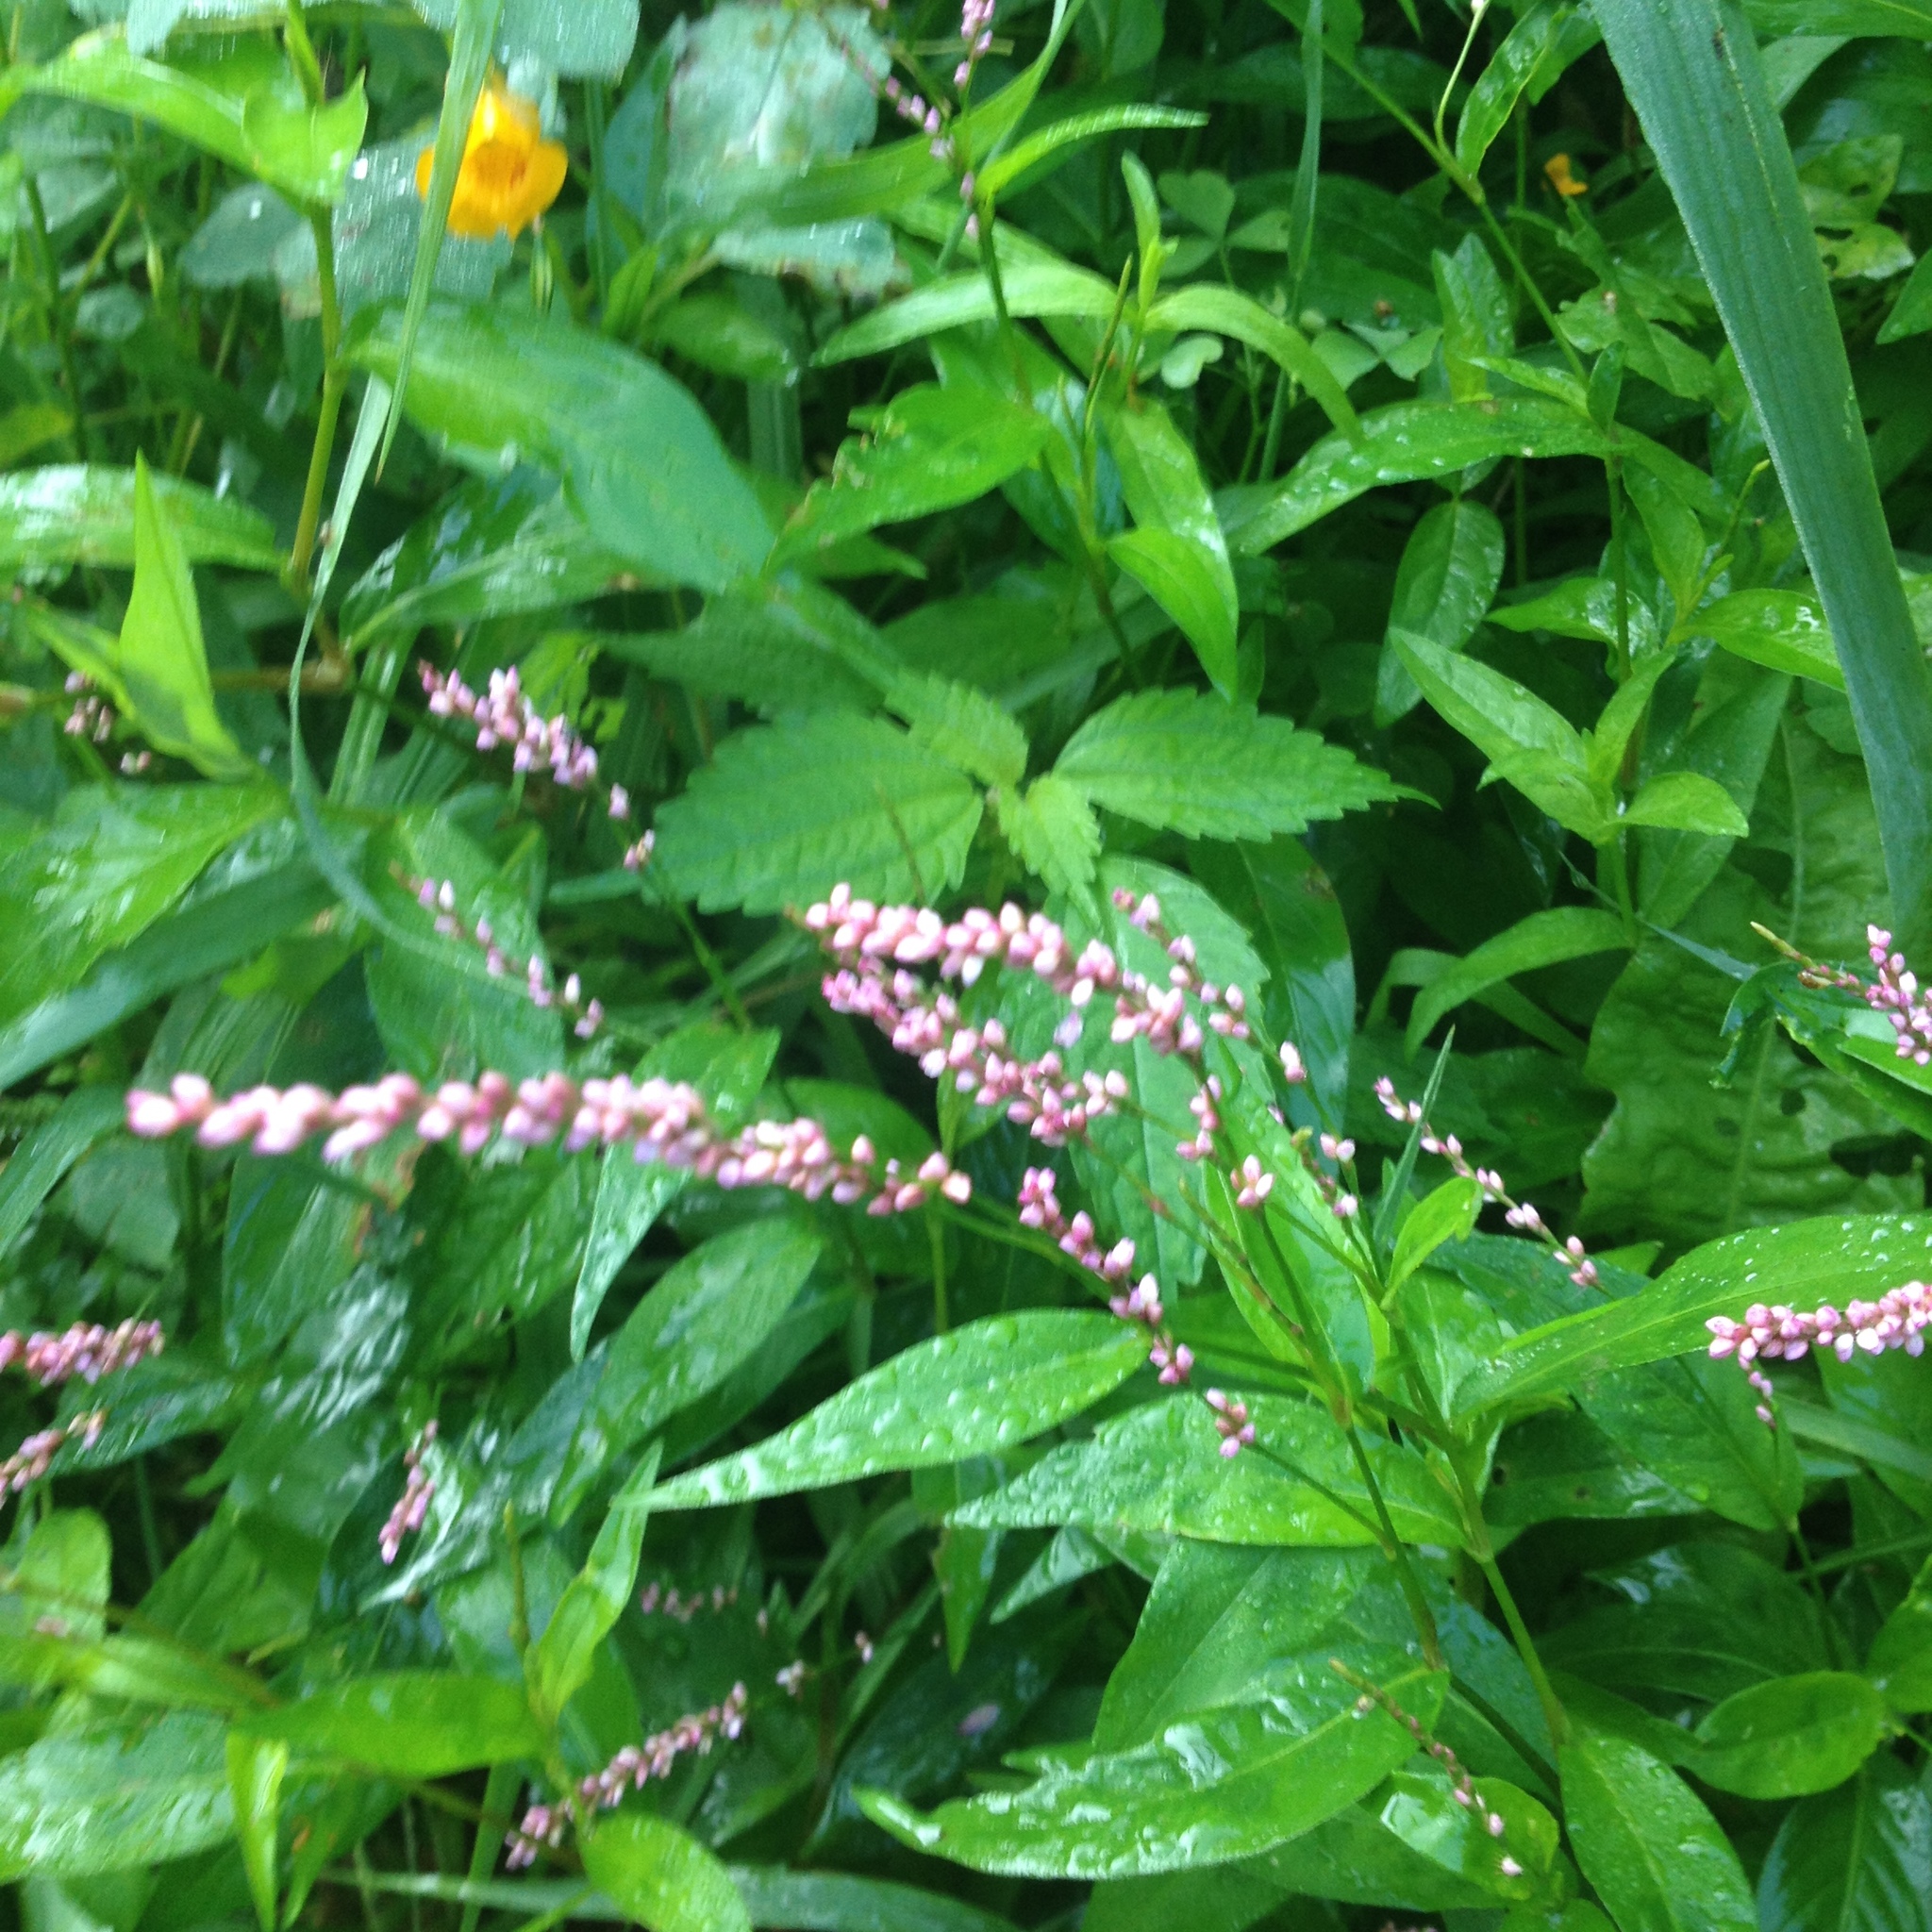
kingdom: Plantae
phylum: Tracheophyta
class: Magnoliopsida
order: Caryophyllales
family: Polygonaceae
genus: Persicaria
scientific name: Persicaria longiseta
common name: Bristly lady's-thumb
